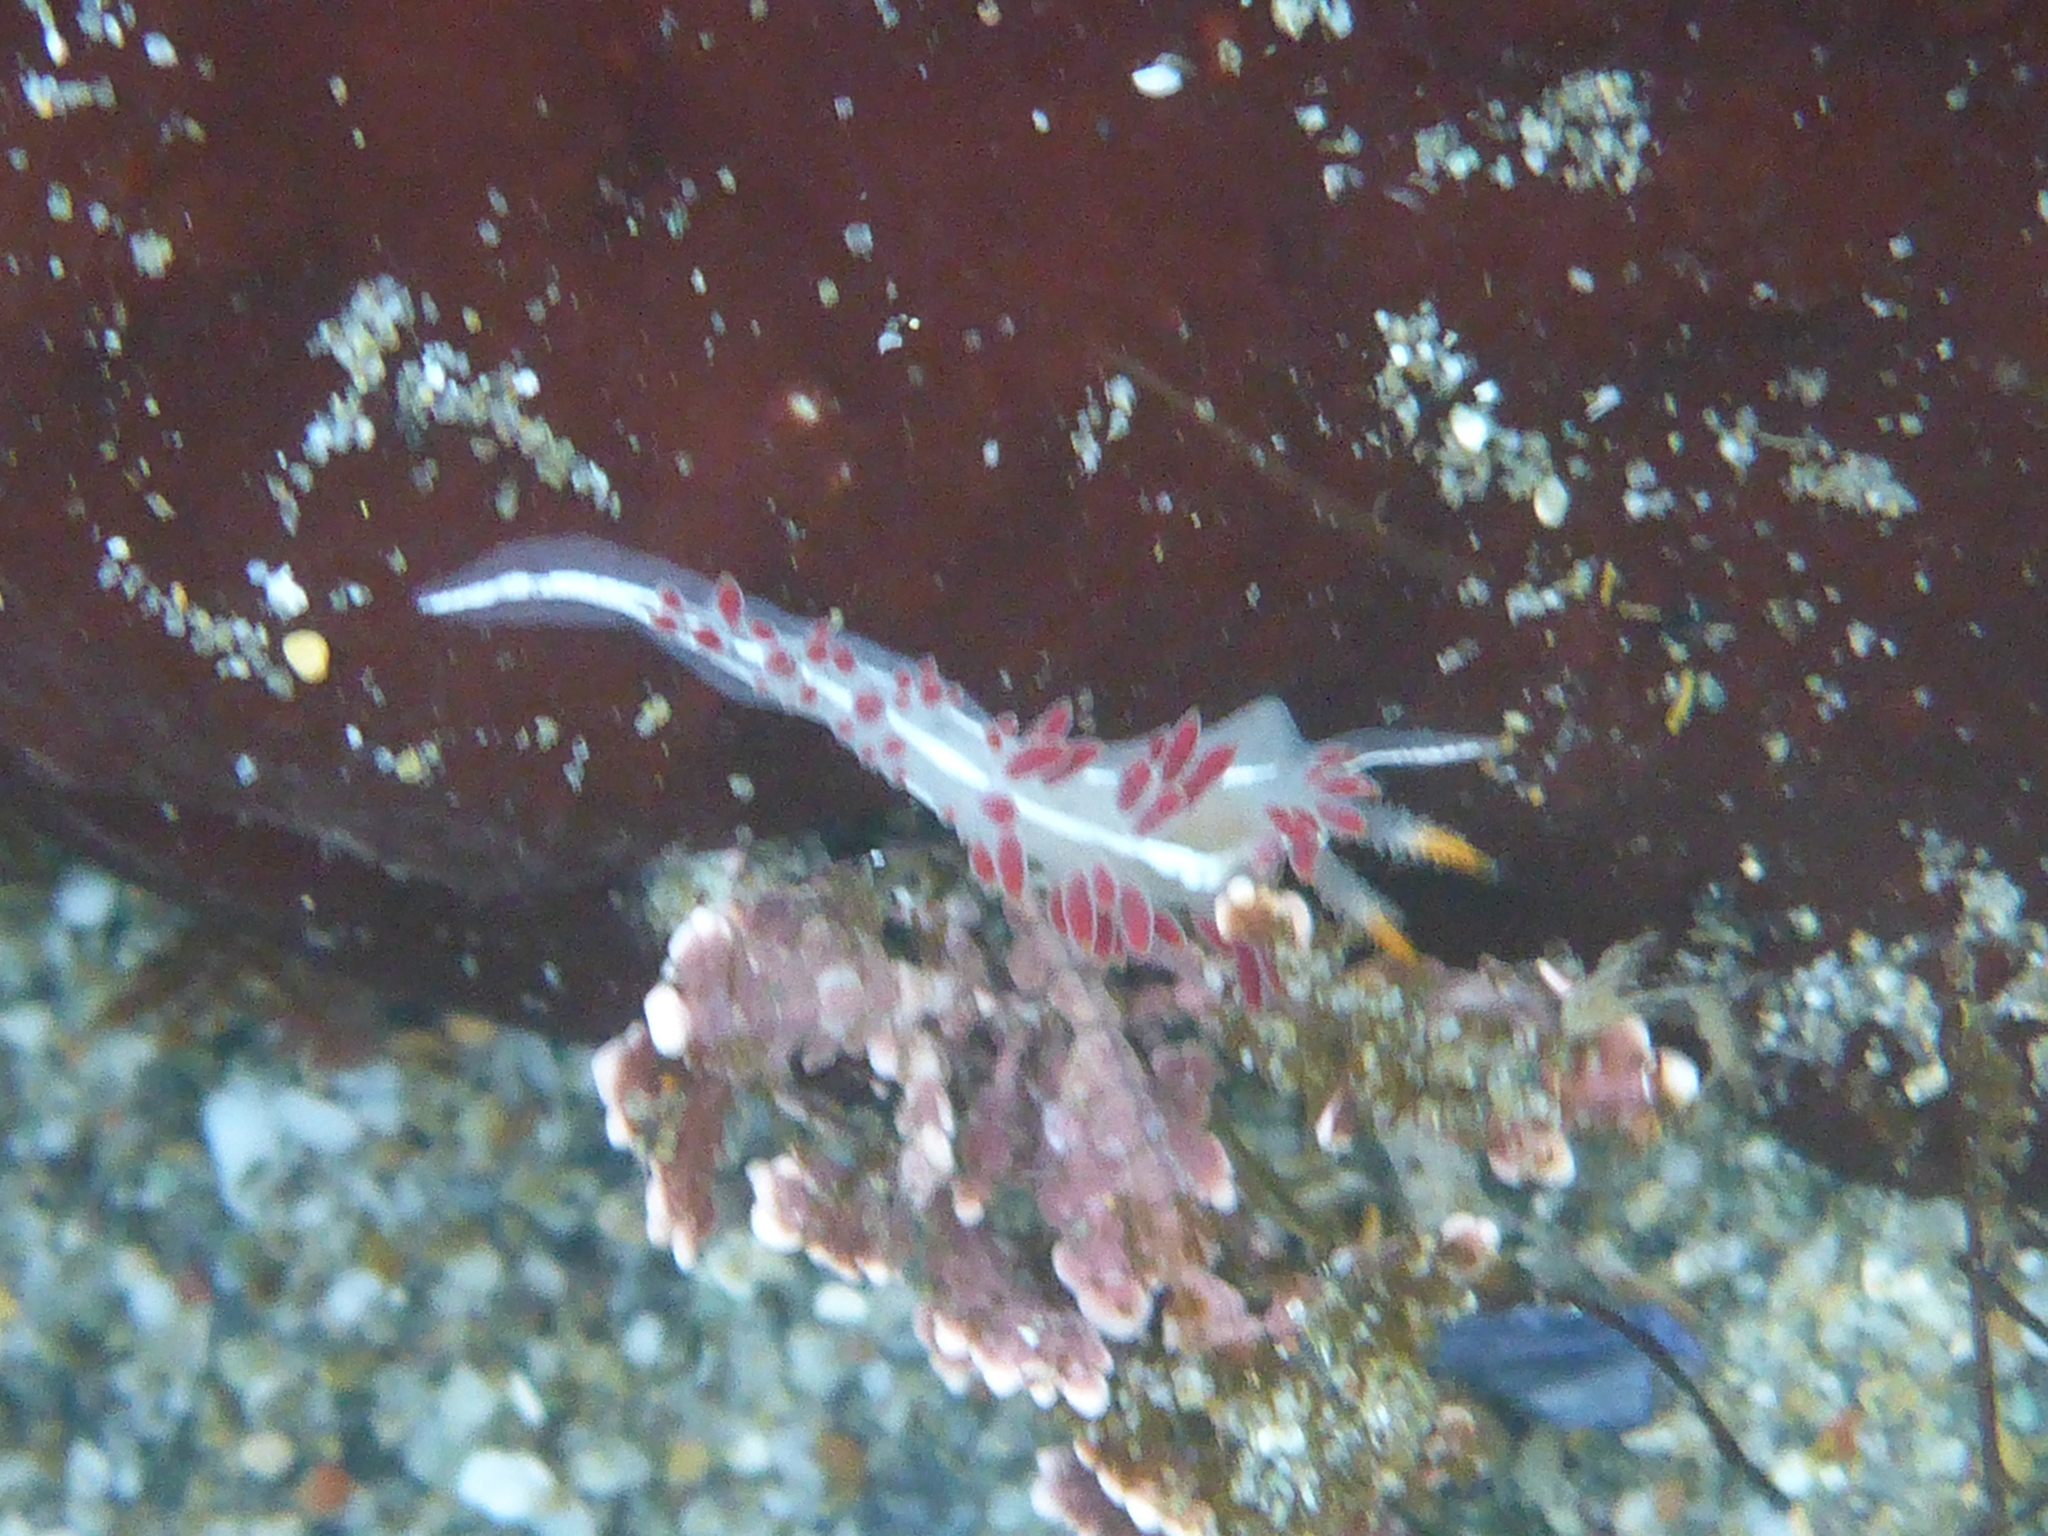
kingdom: Animalia
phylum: Mollusca
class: Gastropoda
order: Nudibranchia
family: Coryphellidae
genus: Coryphella
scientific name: Coryphella trilineata
